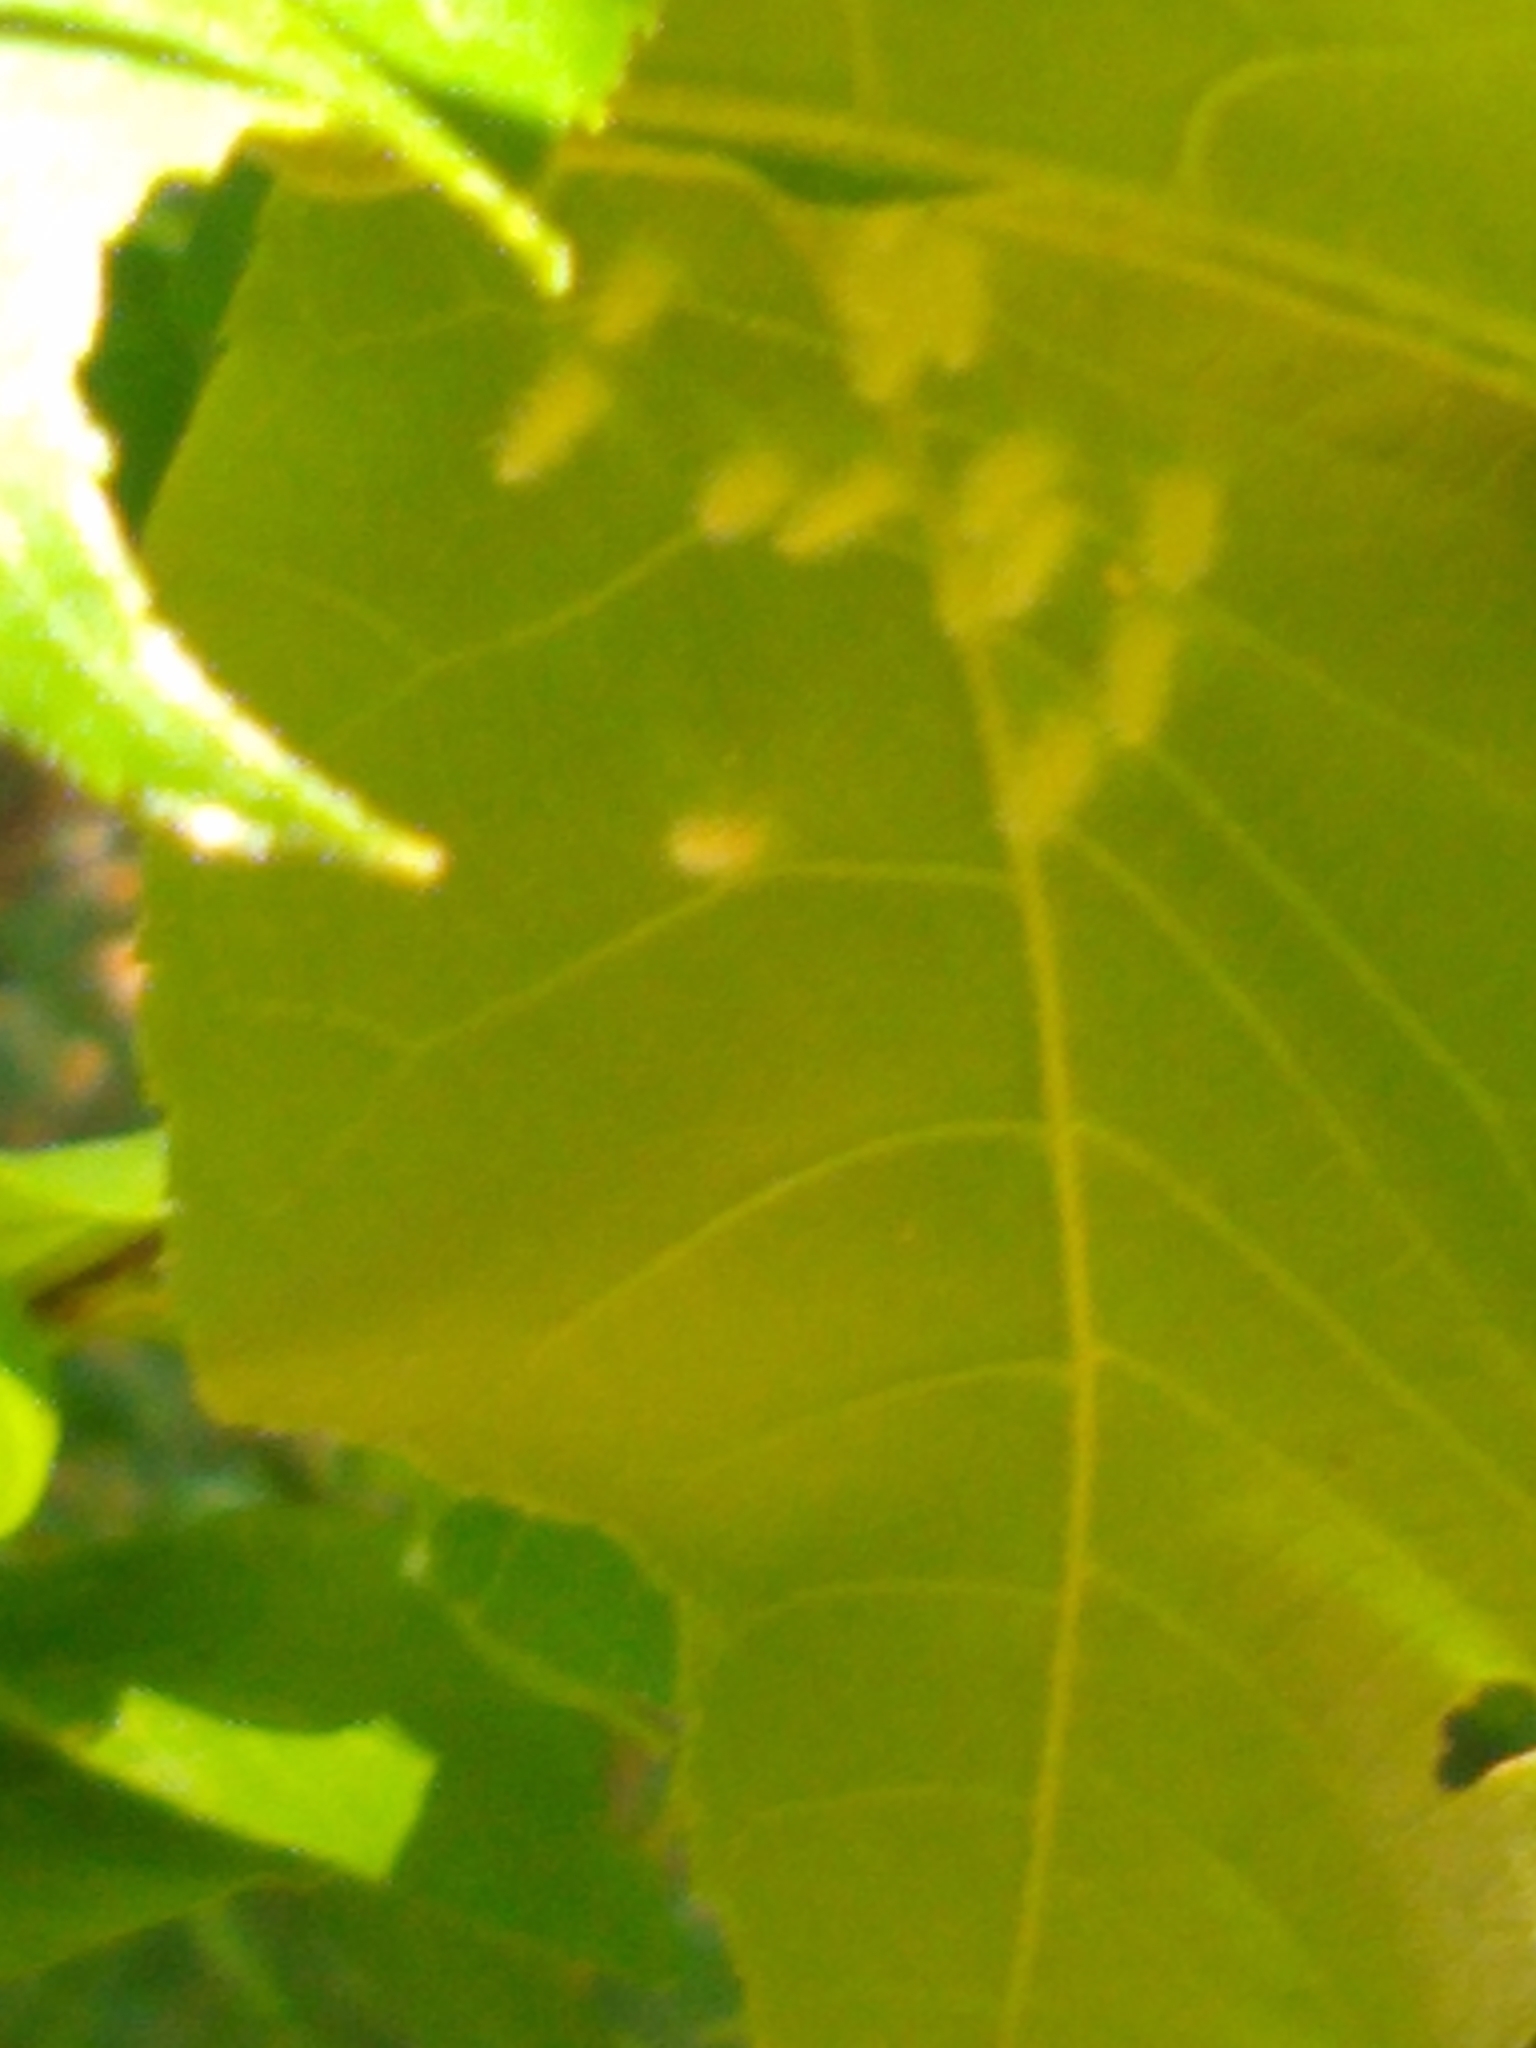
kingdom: Animalia
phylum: Arthropoda
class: Insecta
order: Diptera
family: Cecidomyiidae
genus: Caryomyia
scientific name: Caryomyia albipilosa
